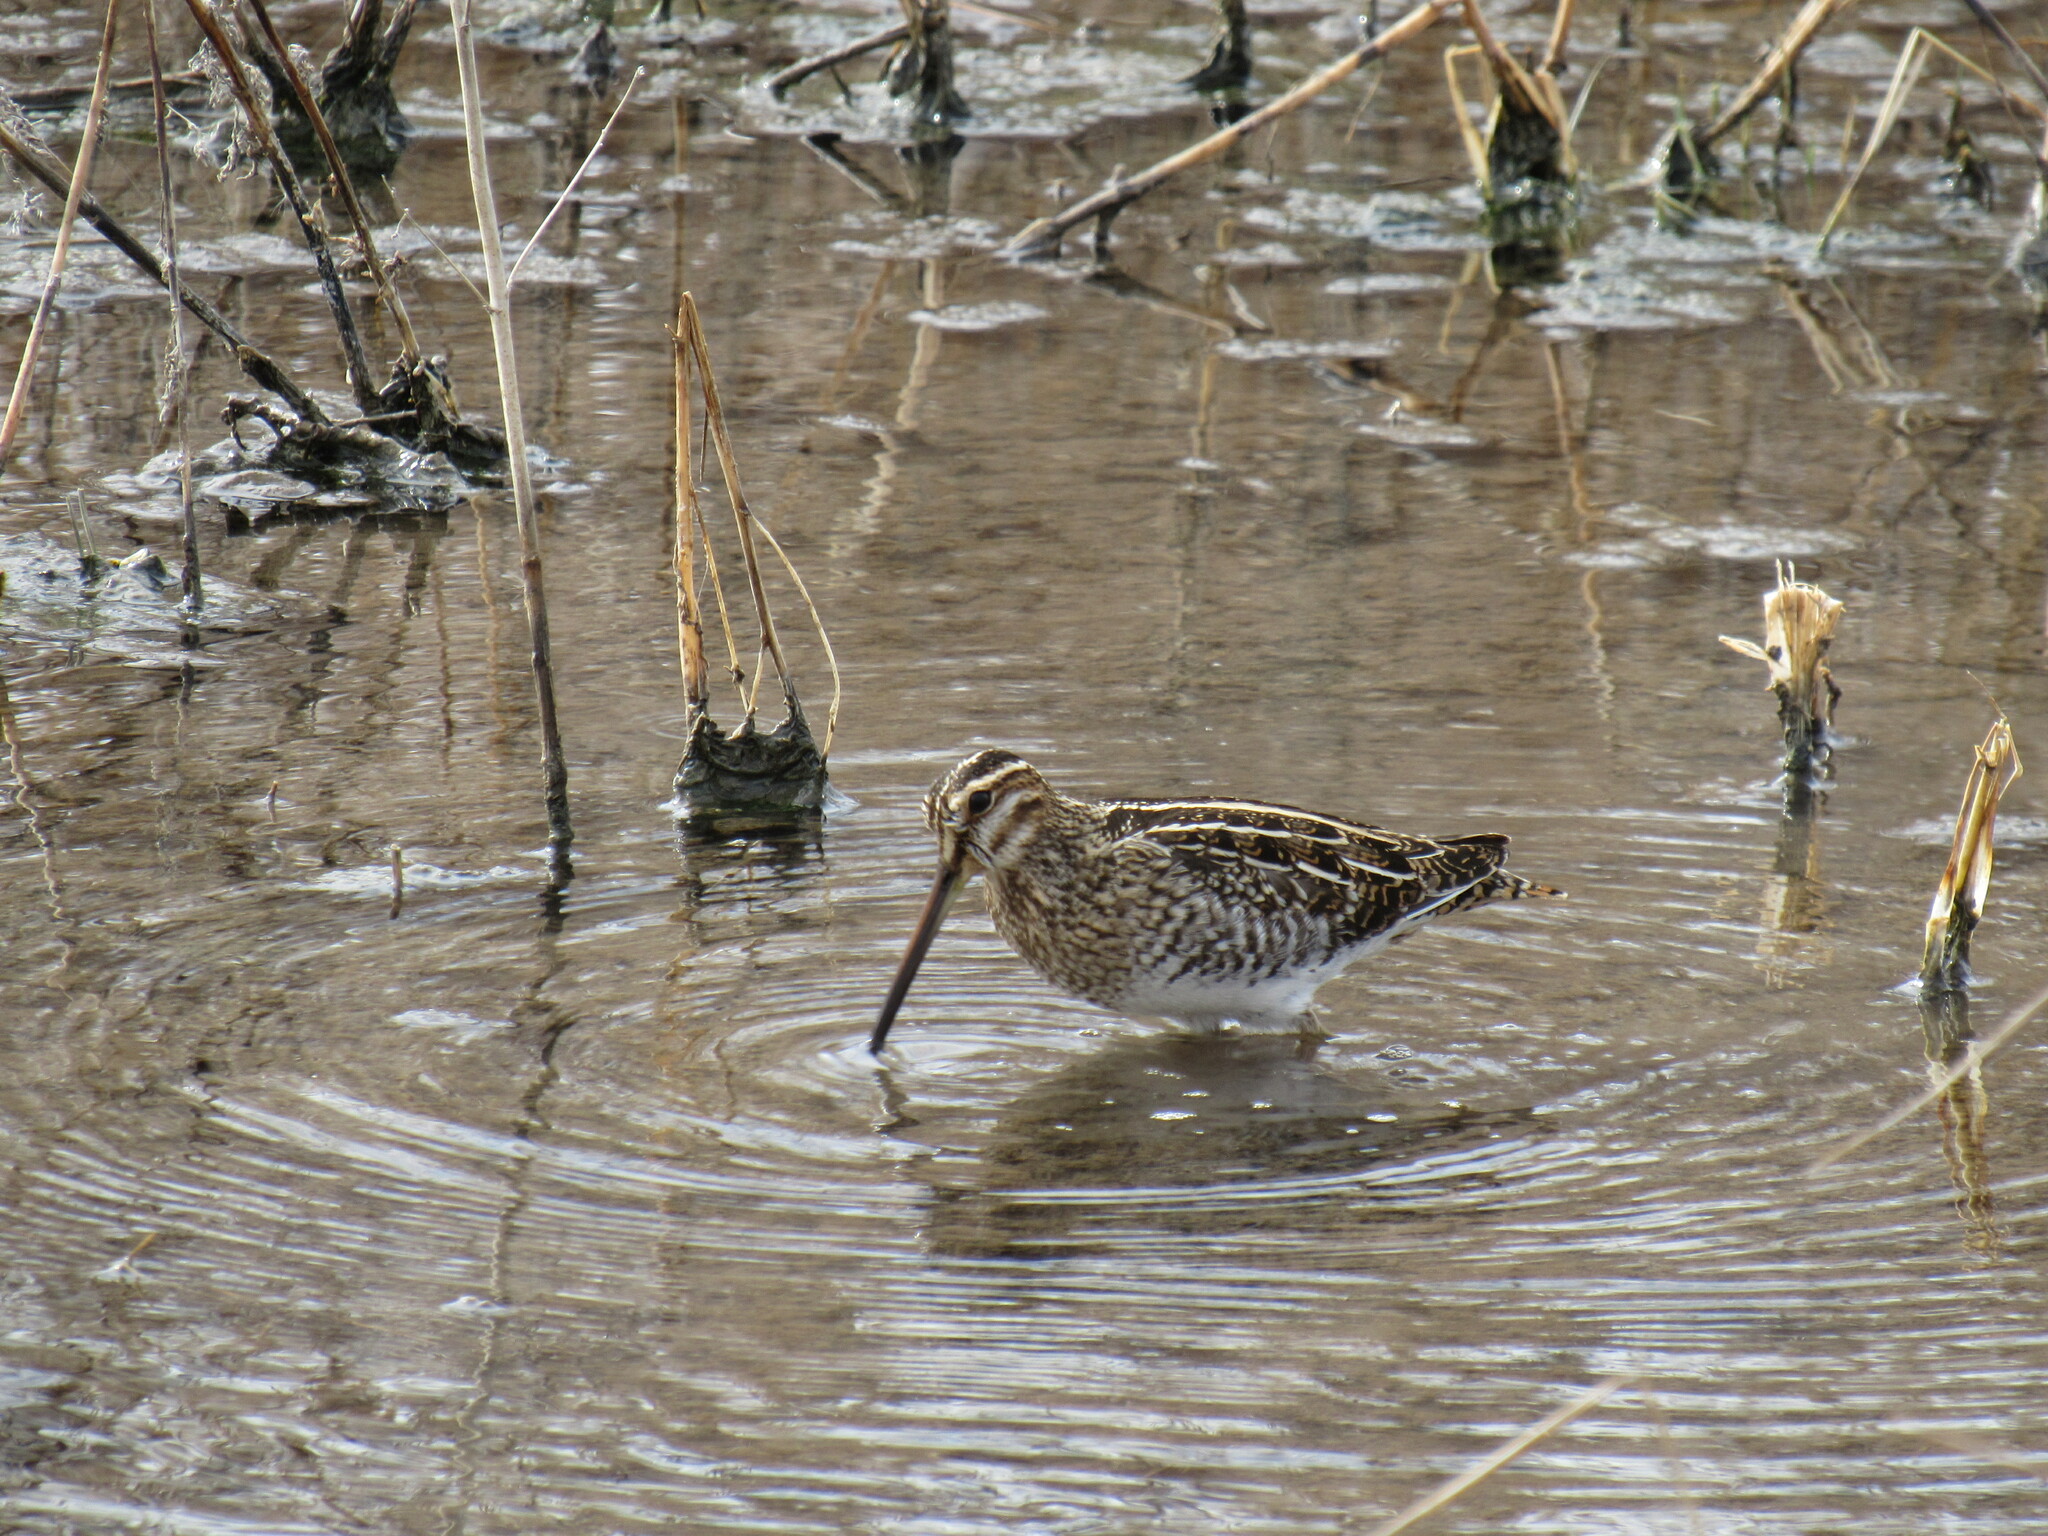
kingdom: Animalia
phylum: Chordata
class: Aves
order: Charadriiformes
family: Scolopacidae
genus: Gallinago
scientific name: Gallinago delicata
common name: Wilson's snipe
